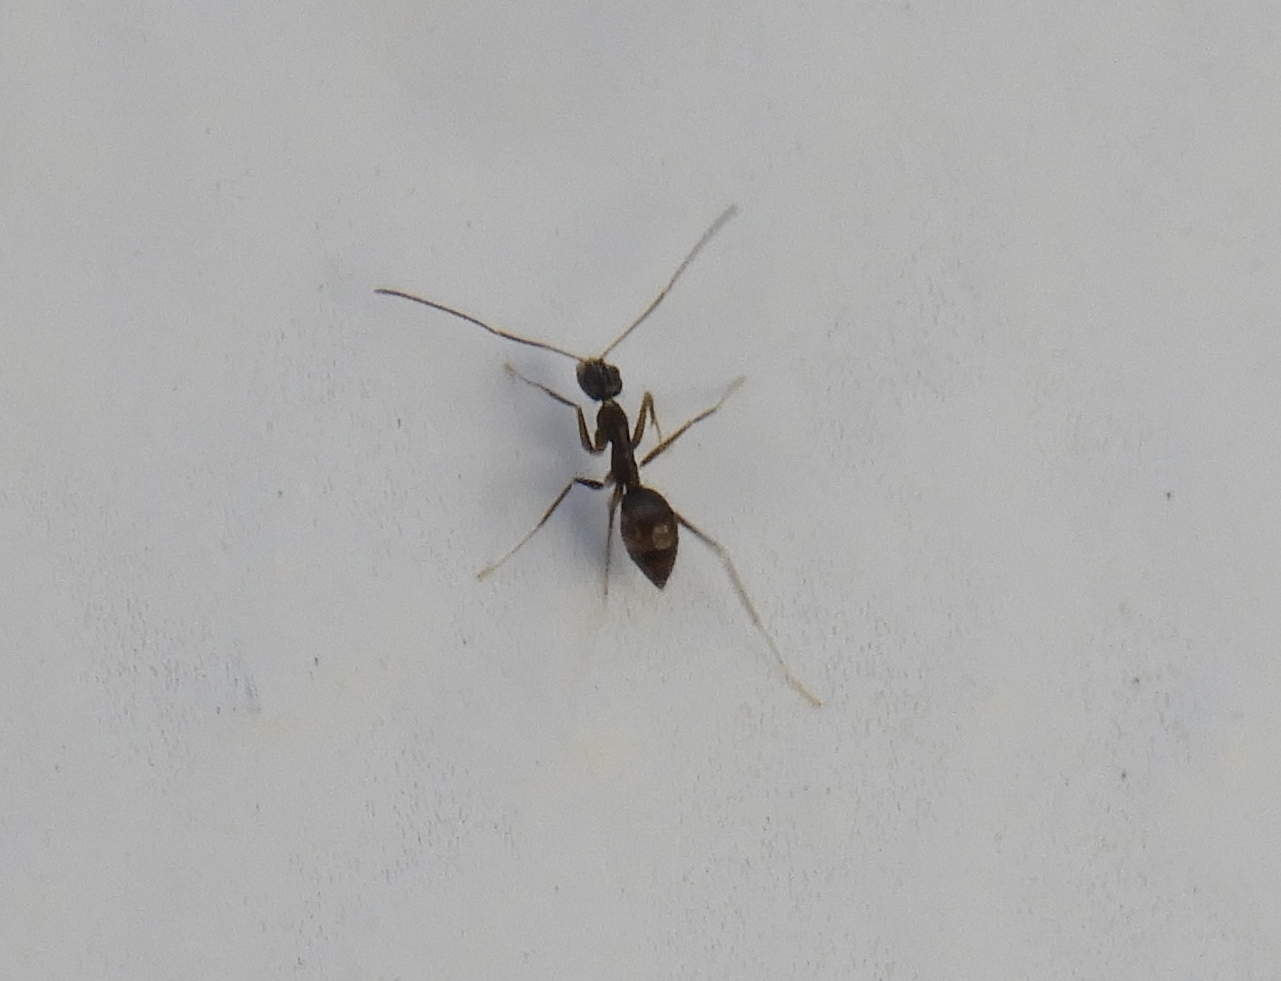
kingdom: Animalia
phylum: Arthropoda
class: Insecta
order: Hymenoptera
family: Formicidae
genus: Paratrechina
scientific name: Paratrechina longicornis
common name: Longhorned crazy ant
